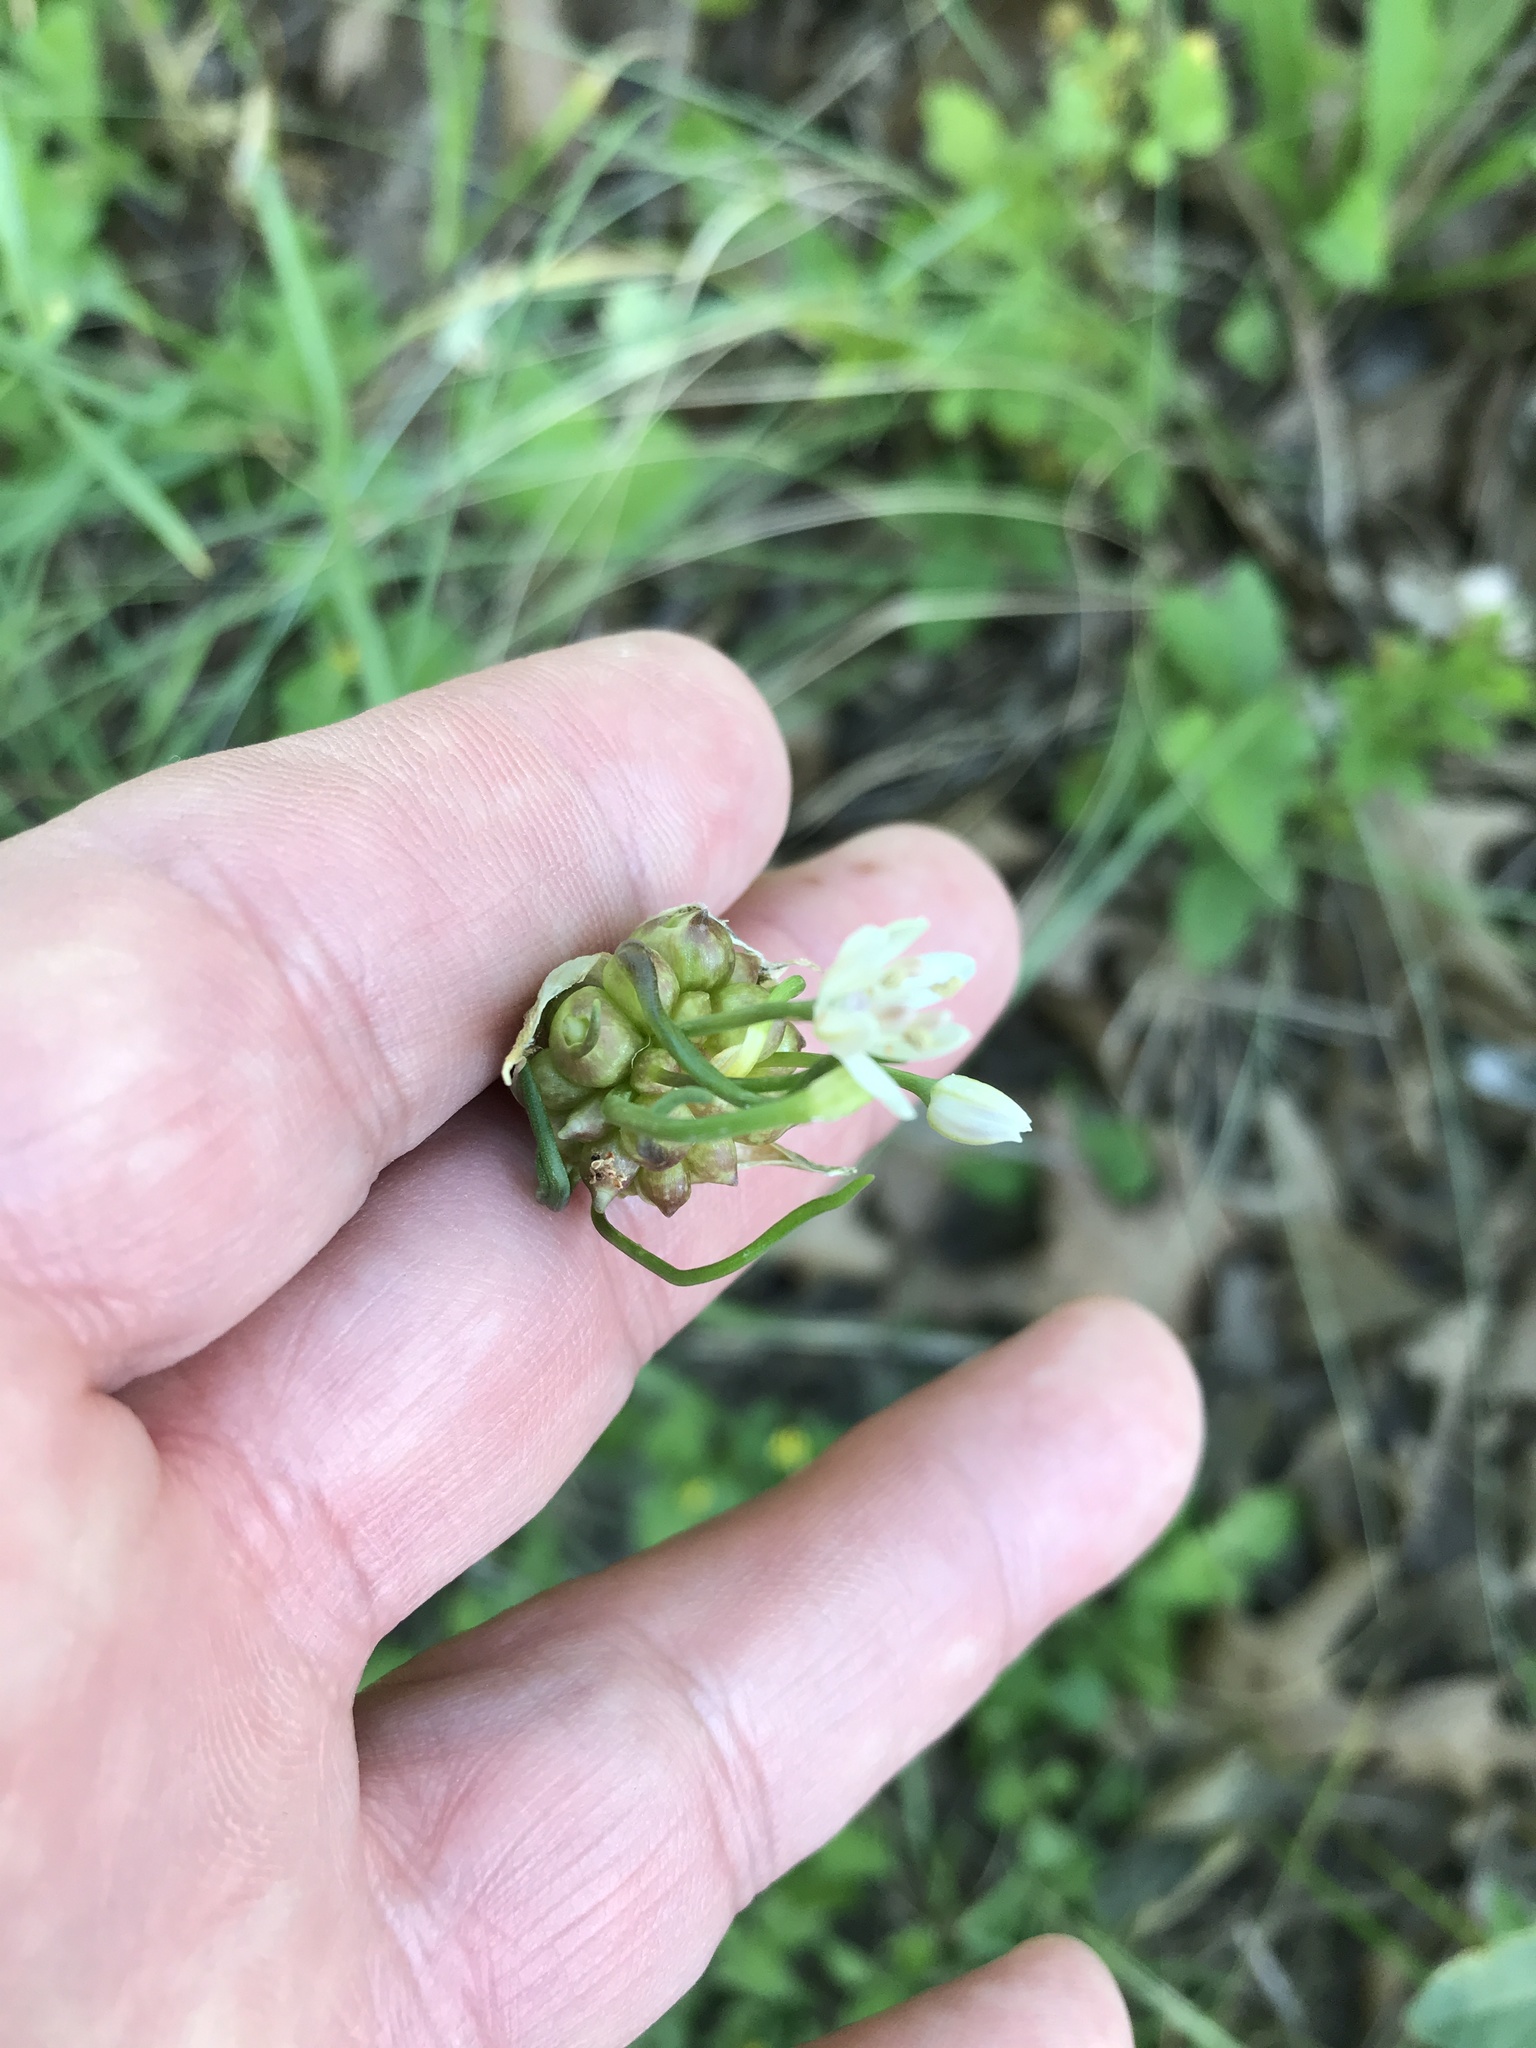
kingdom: Plantae
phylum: Tracheophyta
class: Liliopsida
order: Asparagales
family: Amaryllidaceae
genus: Allium
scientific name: Allium canadense
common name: Meadow garlic
